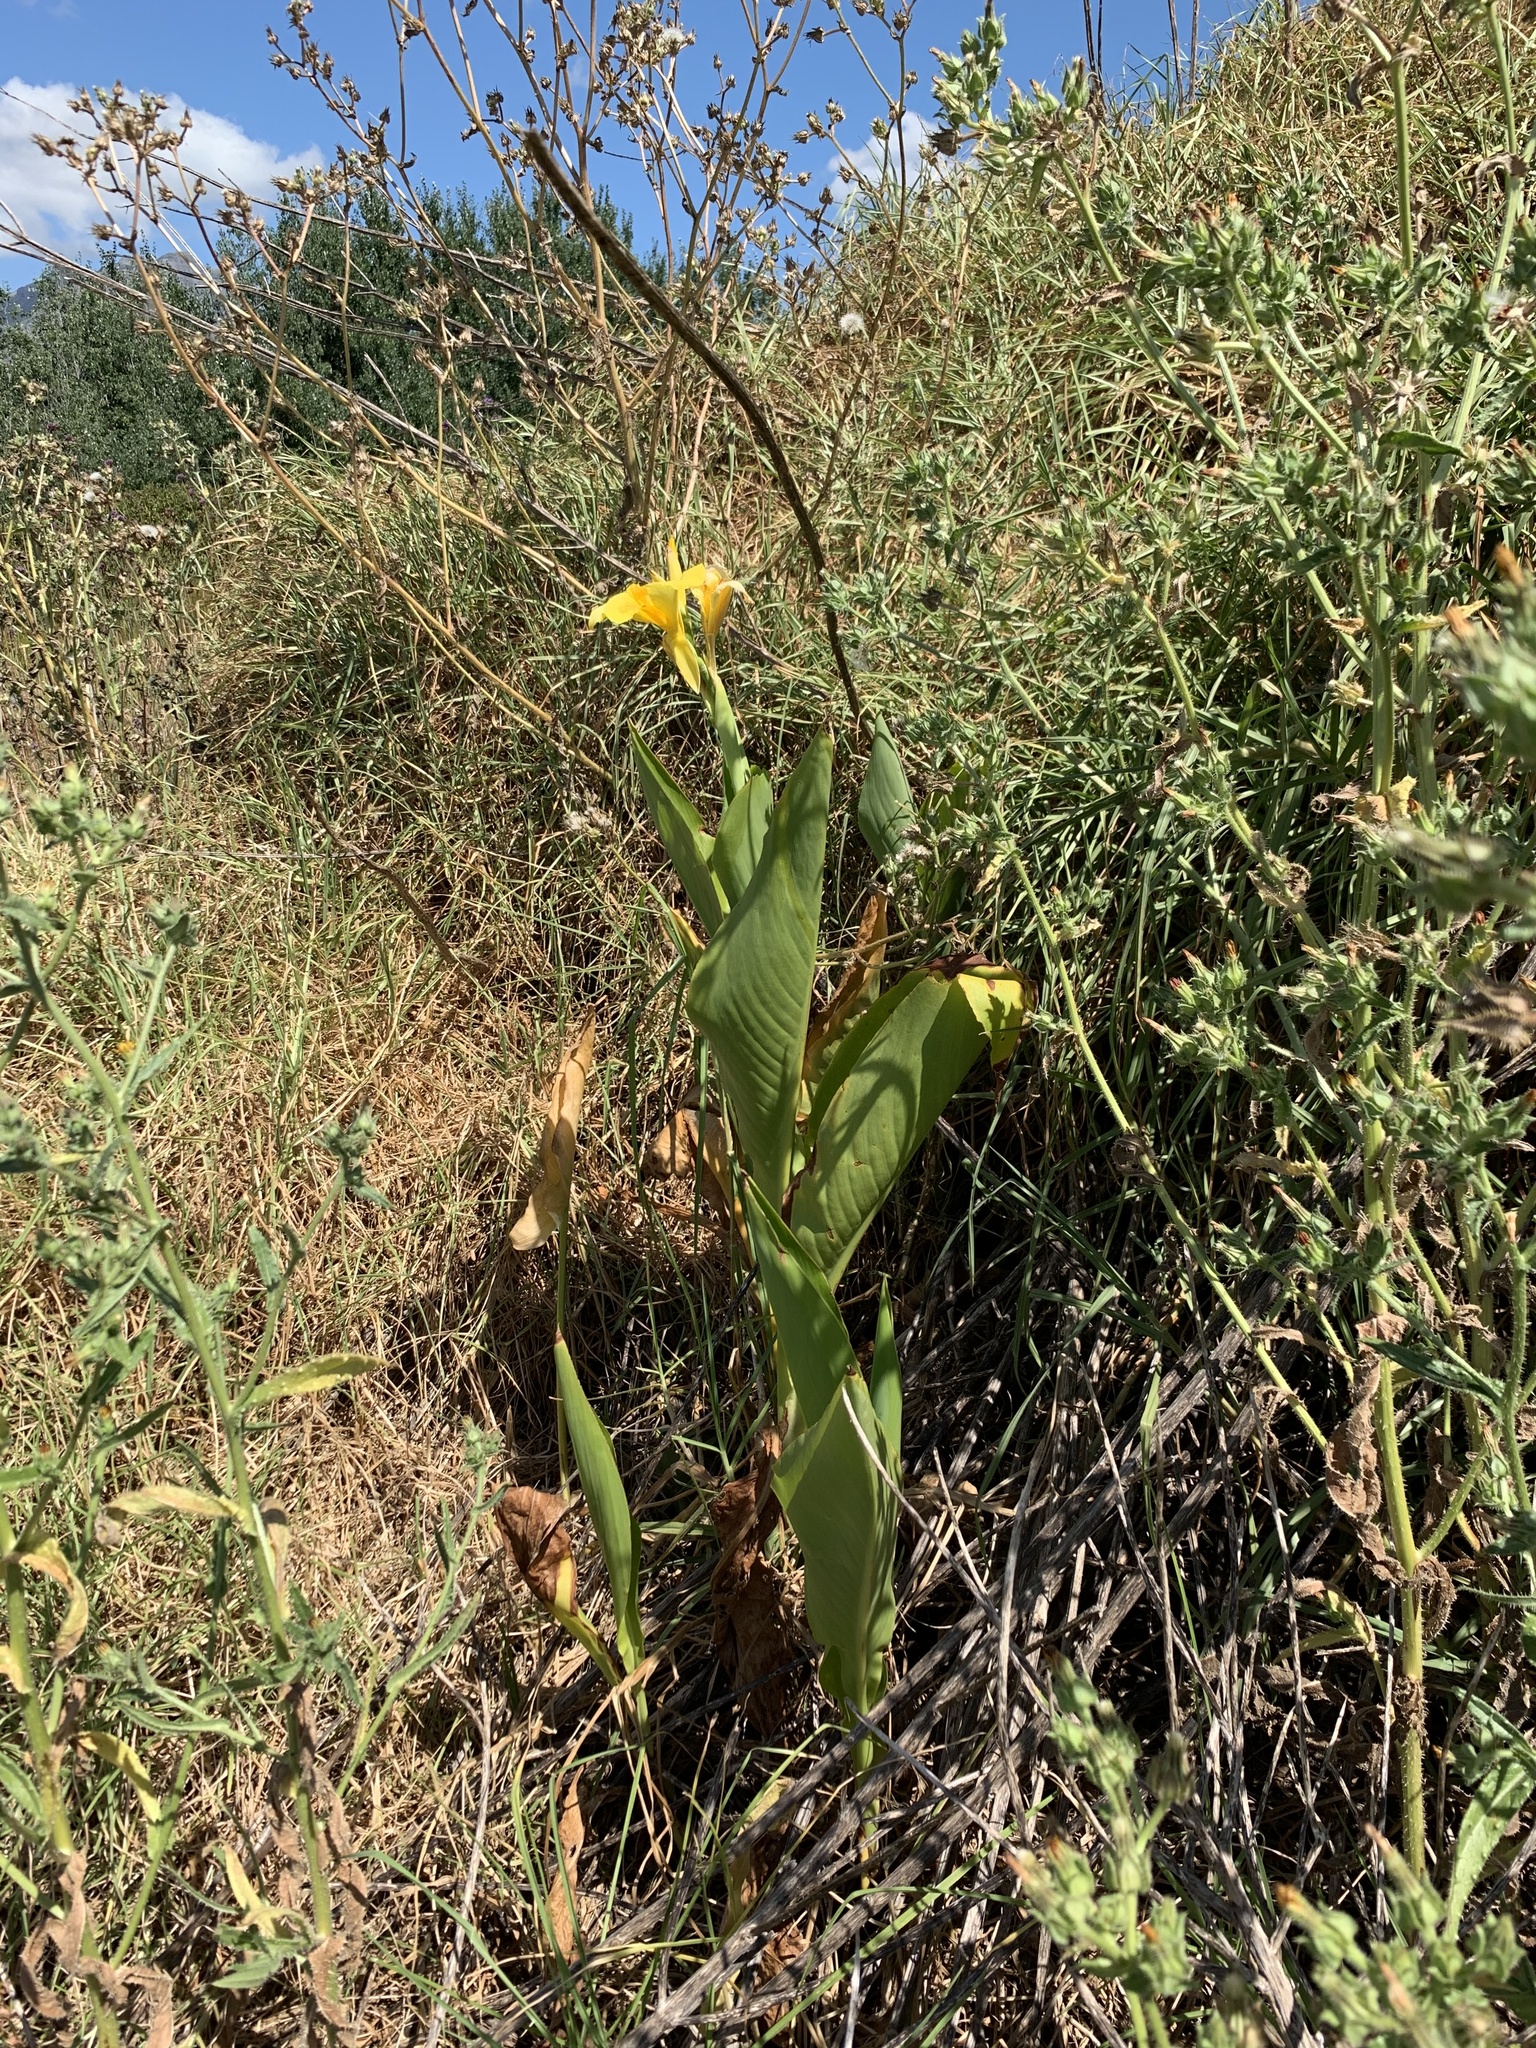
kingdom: Plantae
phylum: Tracheophyta
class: Liliopsida
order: Zingiberales
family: Cannaceae
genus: Canna
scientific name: Canna hybrida
